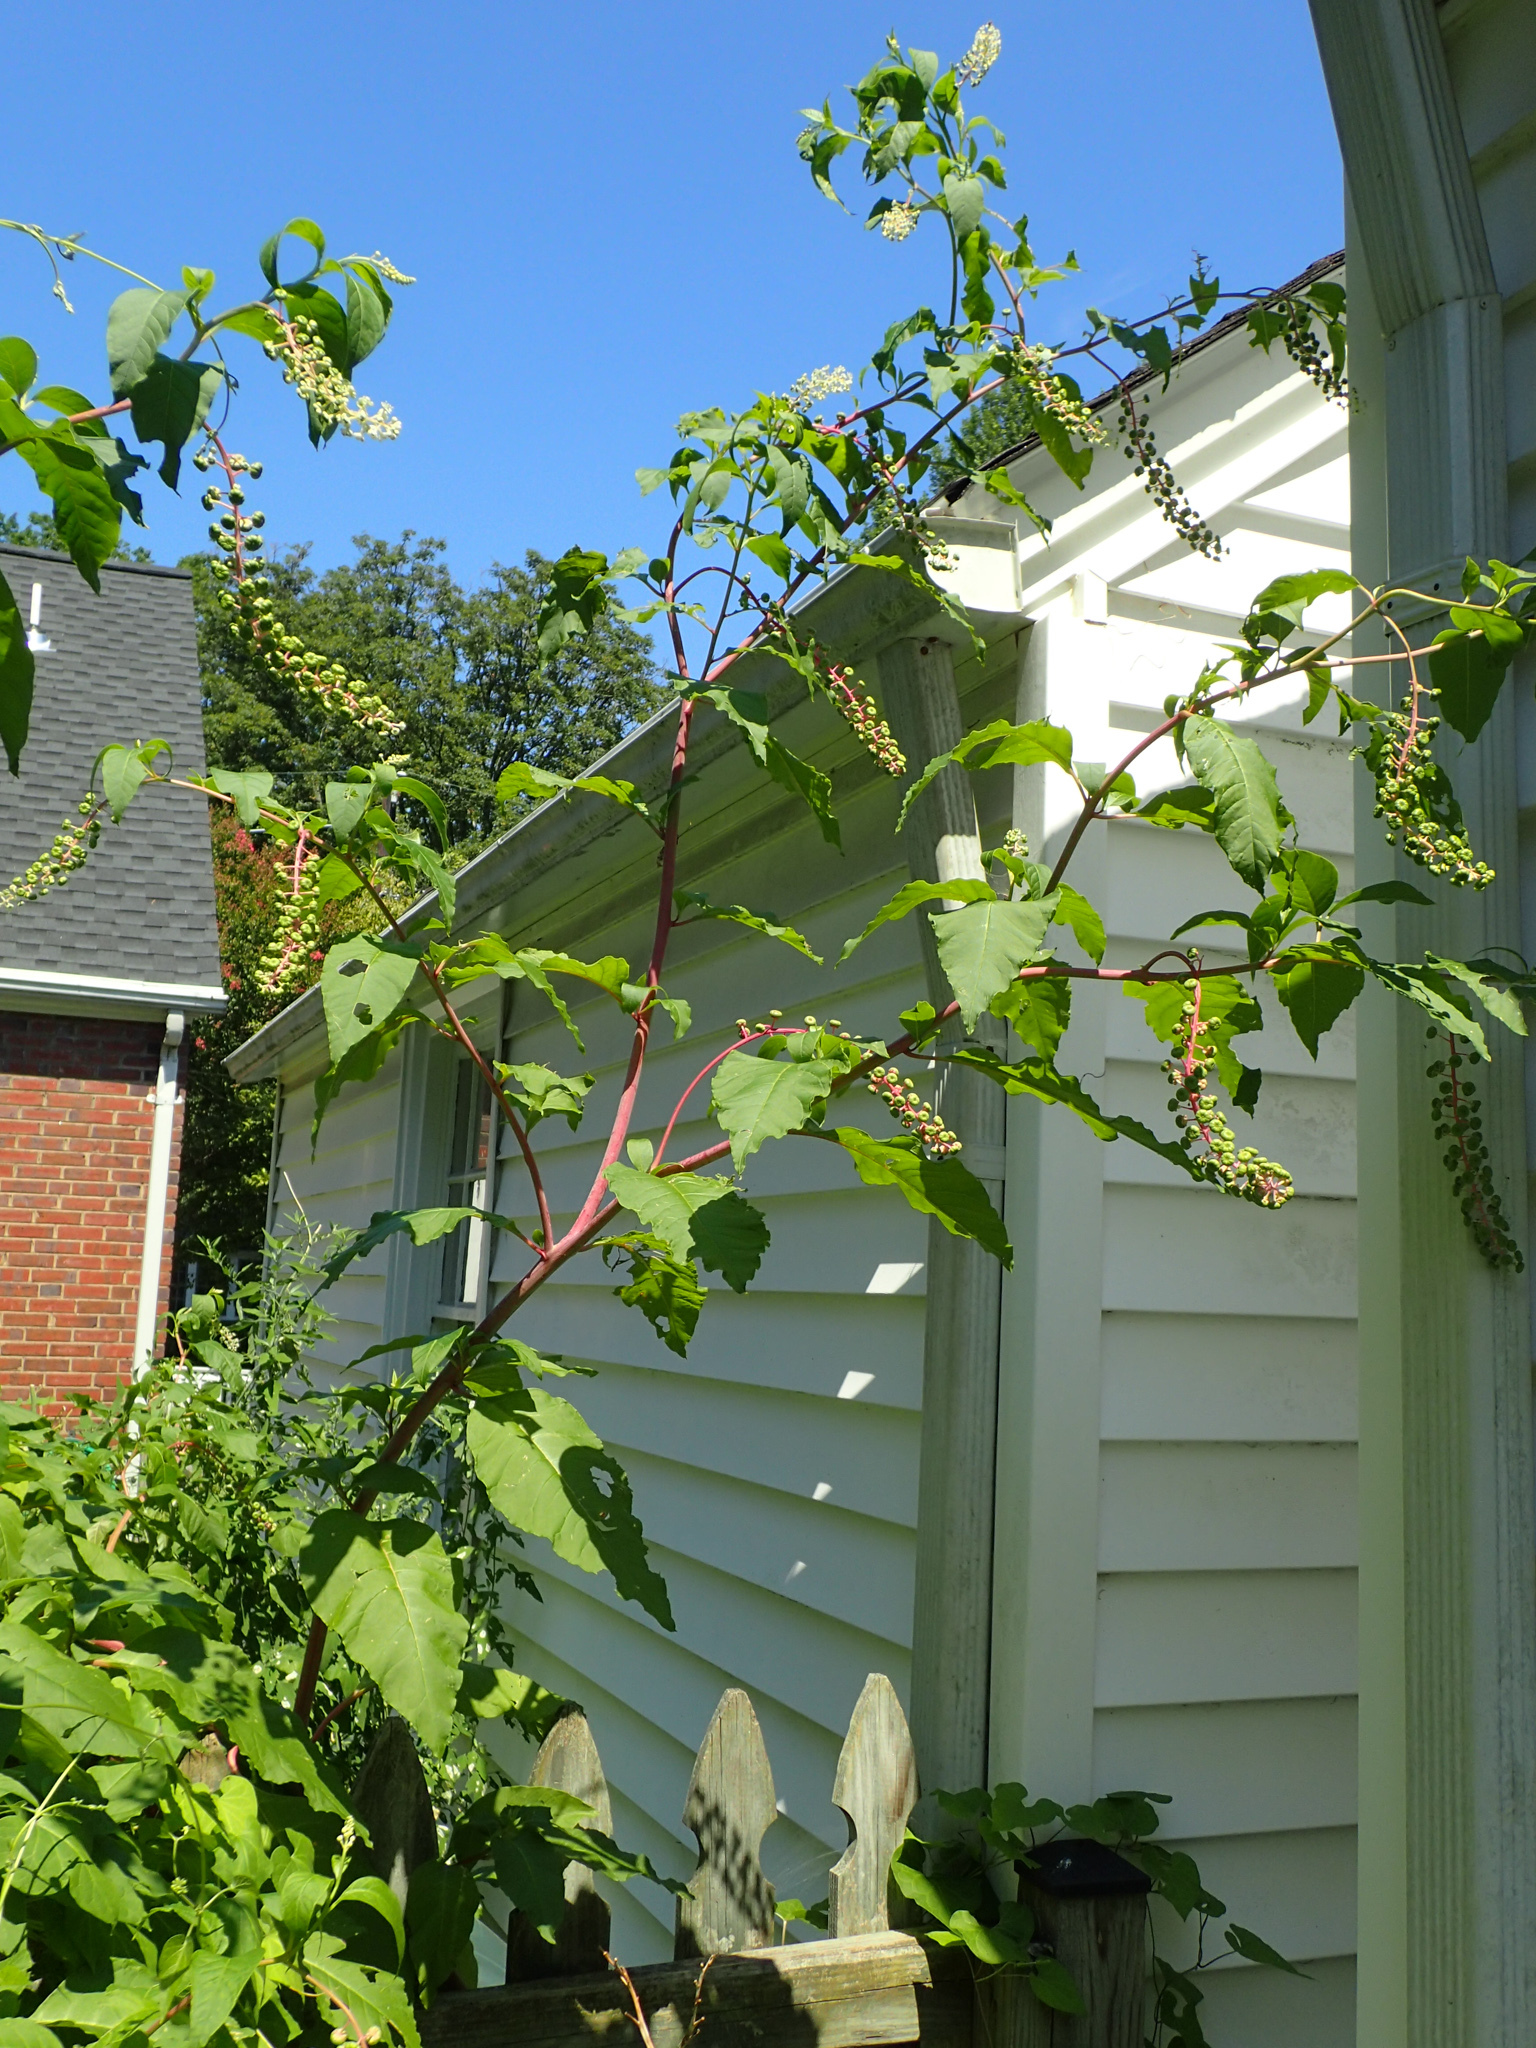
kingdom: Plantae
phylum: Tracheophyta
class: Magnoliopsida
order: Caryophyllales
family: Phytolaccaceae
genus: Phytolacca
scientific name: Phytolacca americana
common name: American pokeweed
